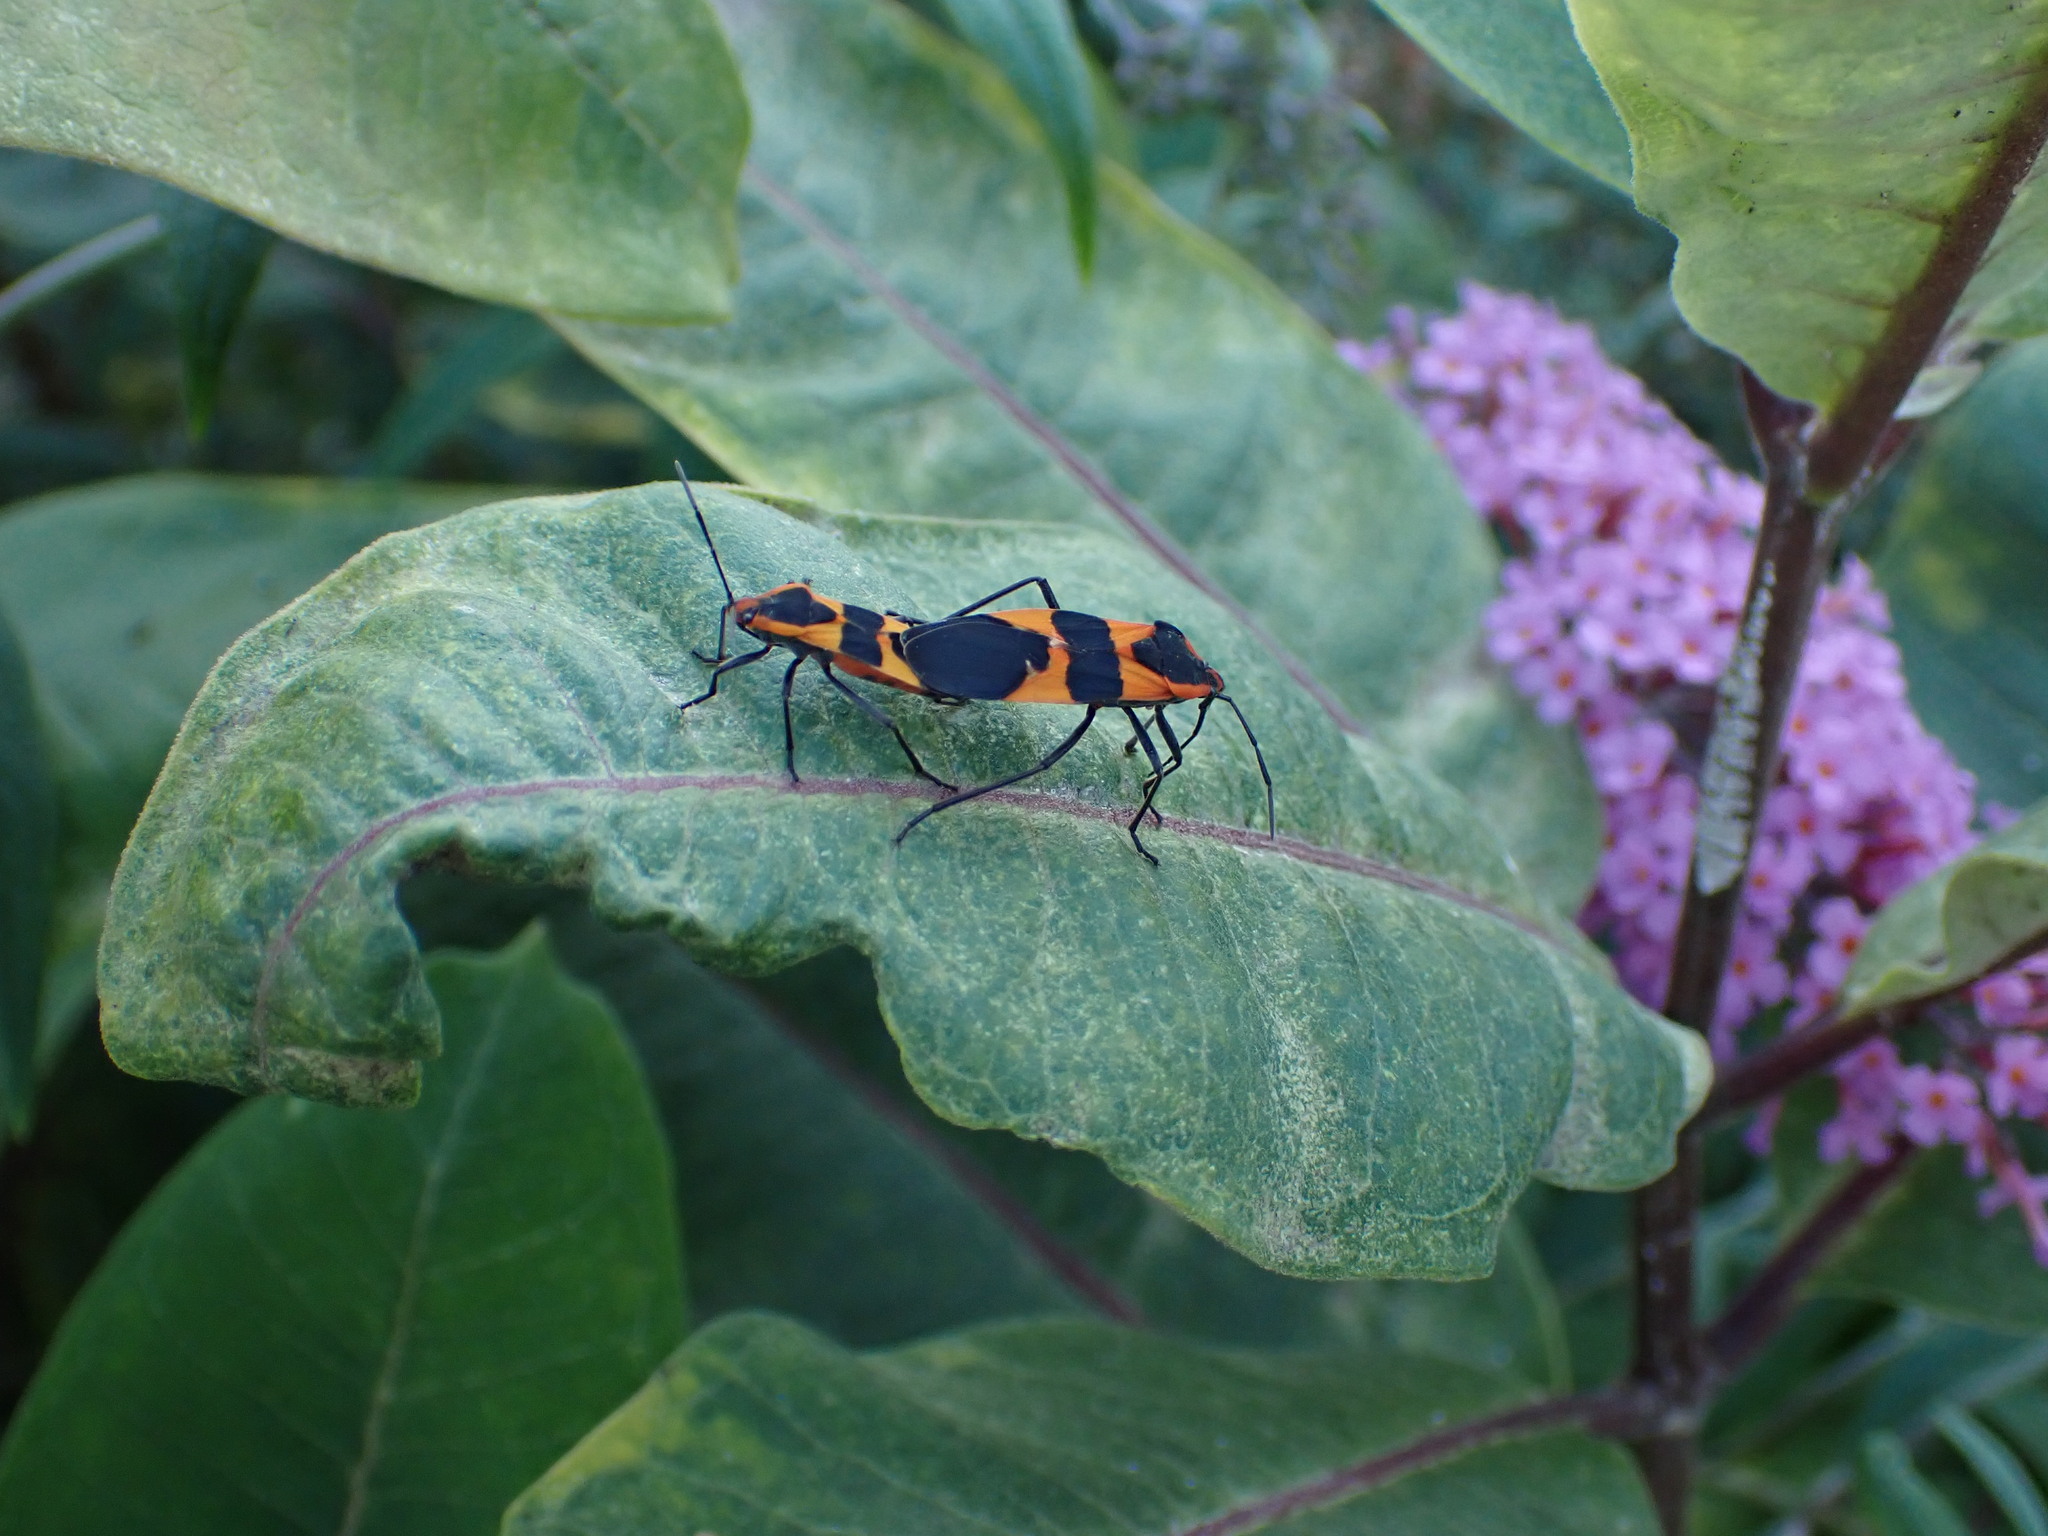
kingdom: Animalia
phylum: Arthropoda
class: Insecta
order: Hemiptera
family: Lygaeidae
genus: Oncopeltus
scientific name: Oncopeltus fasciatus
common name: Large milkweed bug
